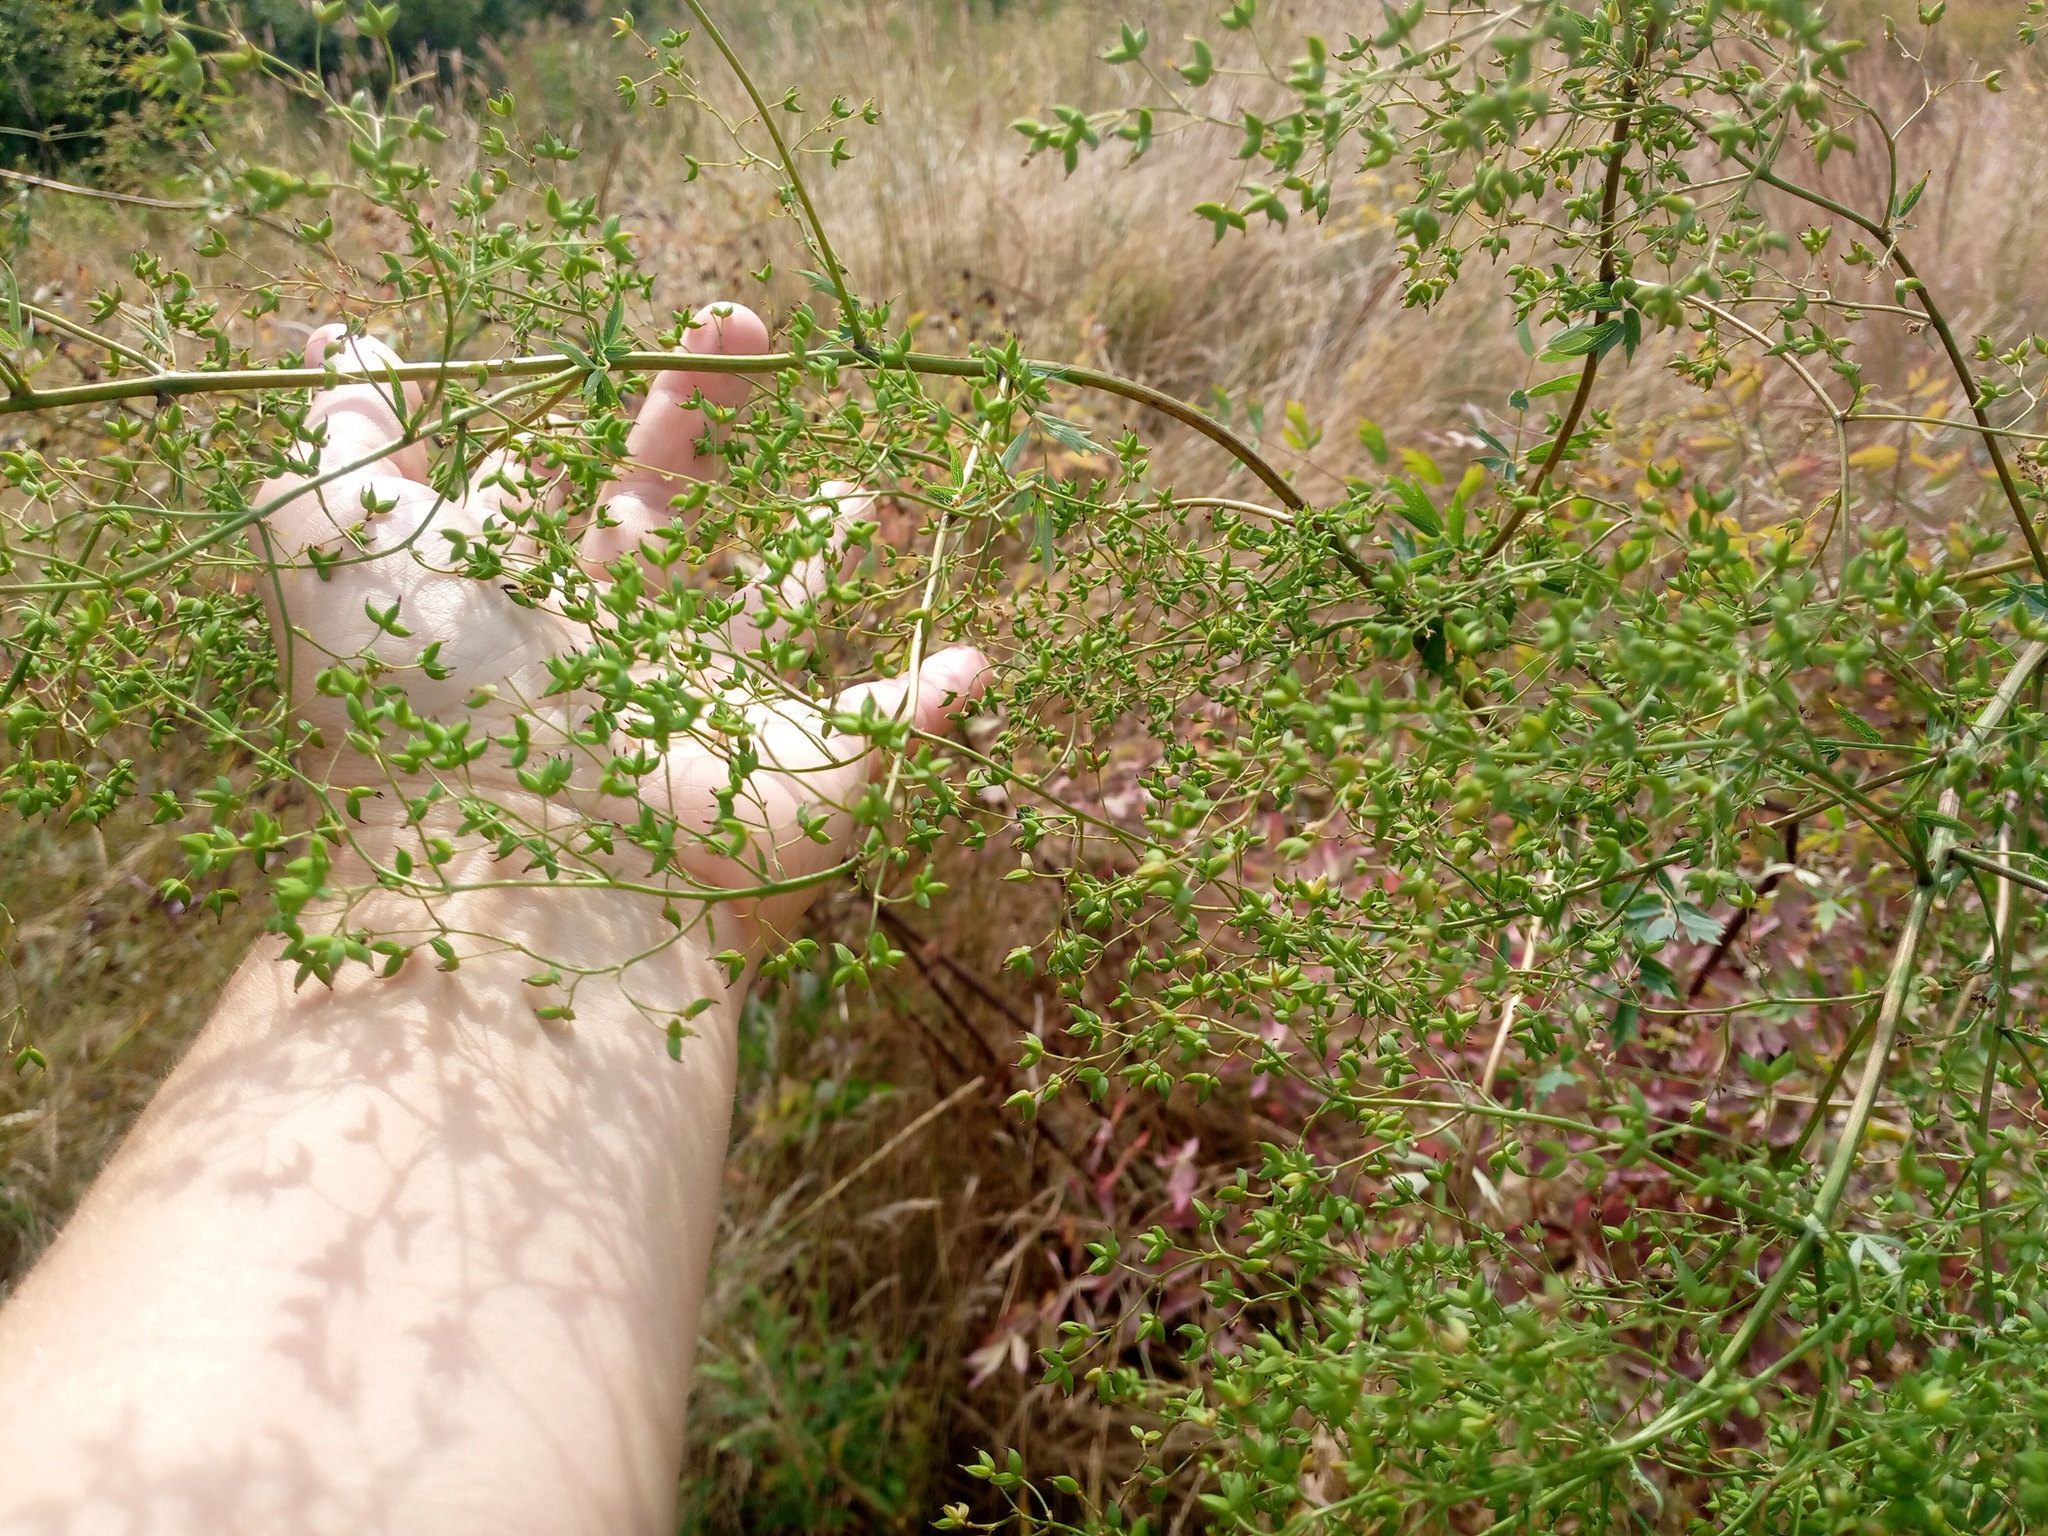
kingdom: Plantae
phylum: Tracheophyta
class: Magnoliopsida
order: Ranunculales
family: Ranunculaceae
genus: Thalictrum
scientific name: Thalictrum minus
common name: Lesser meadow-rue
